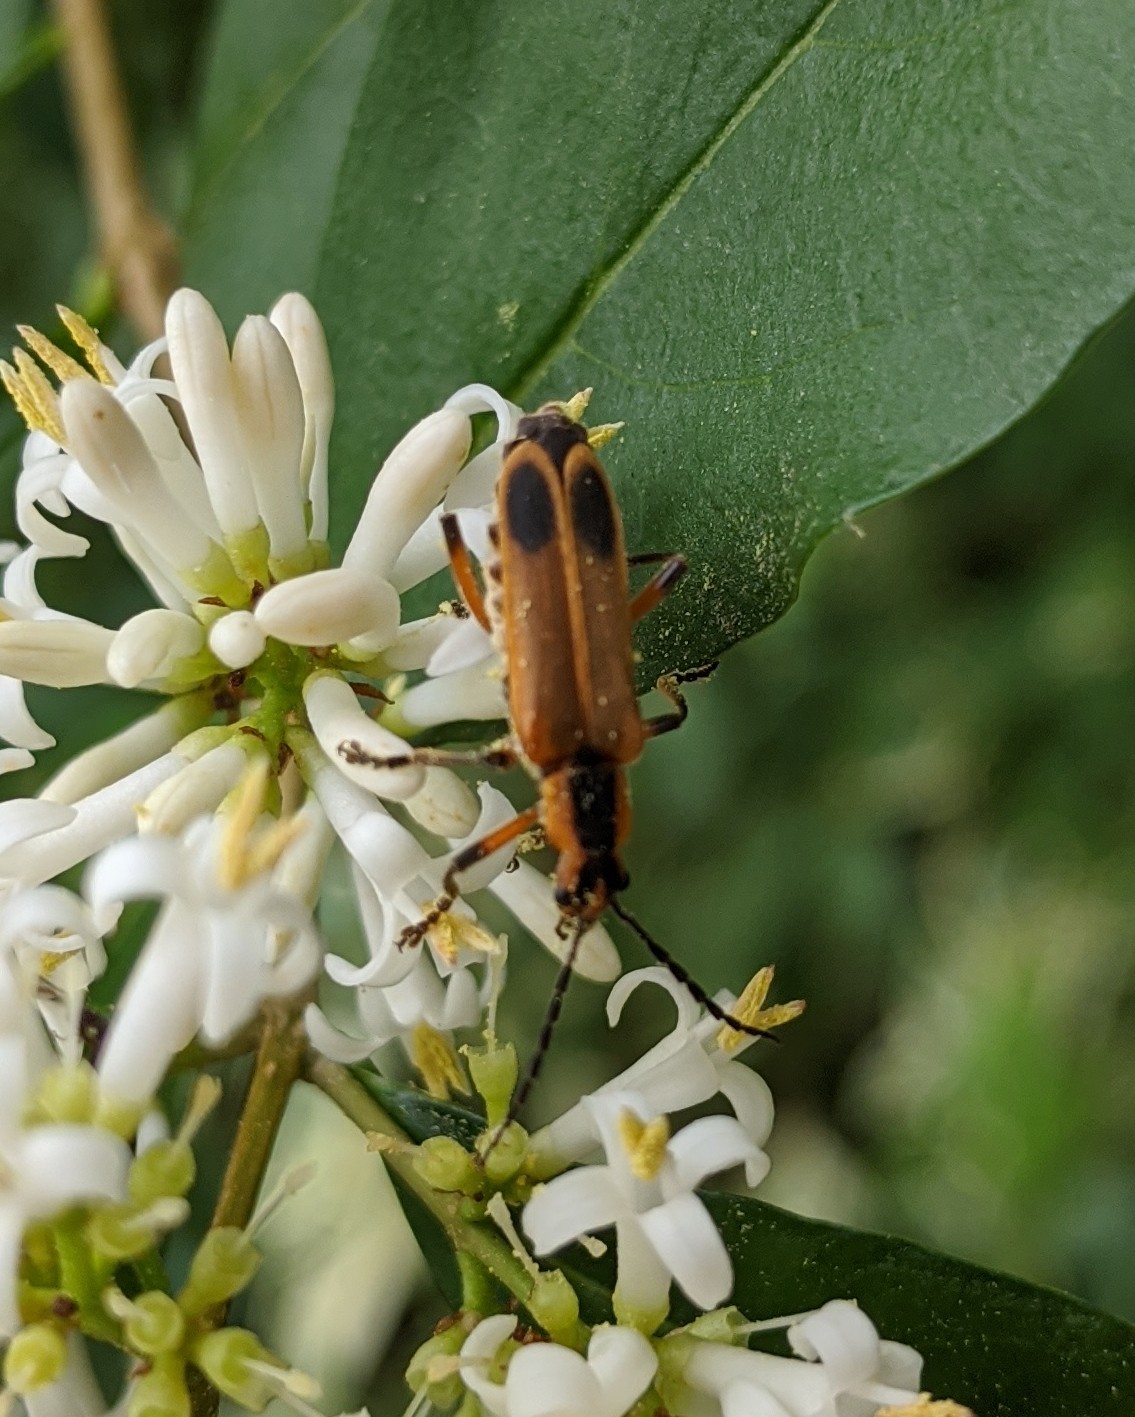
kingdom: Animalia
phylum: Arthropoda
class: Insecta
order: Coleoptera
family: Cantharidae
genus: Chauliognathus
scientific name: Chauliognathus marginatus
